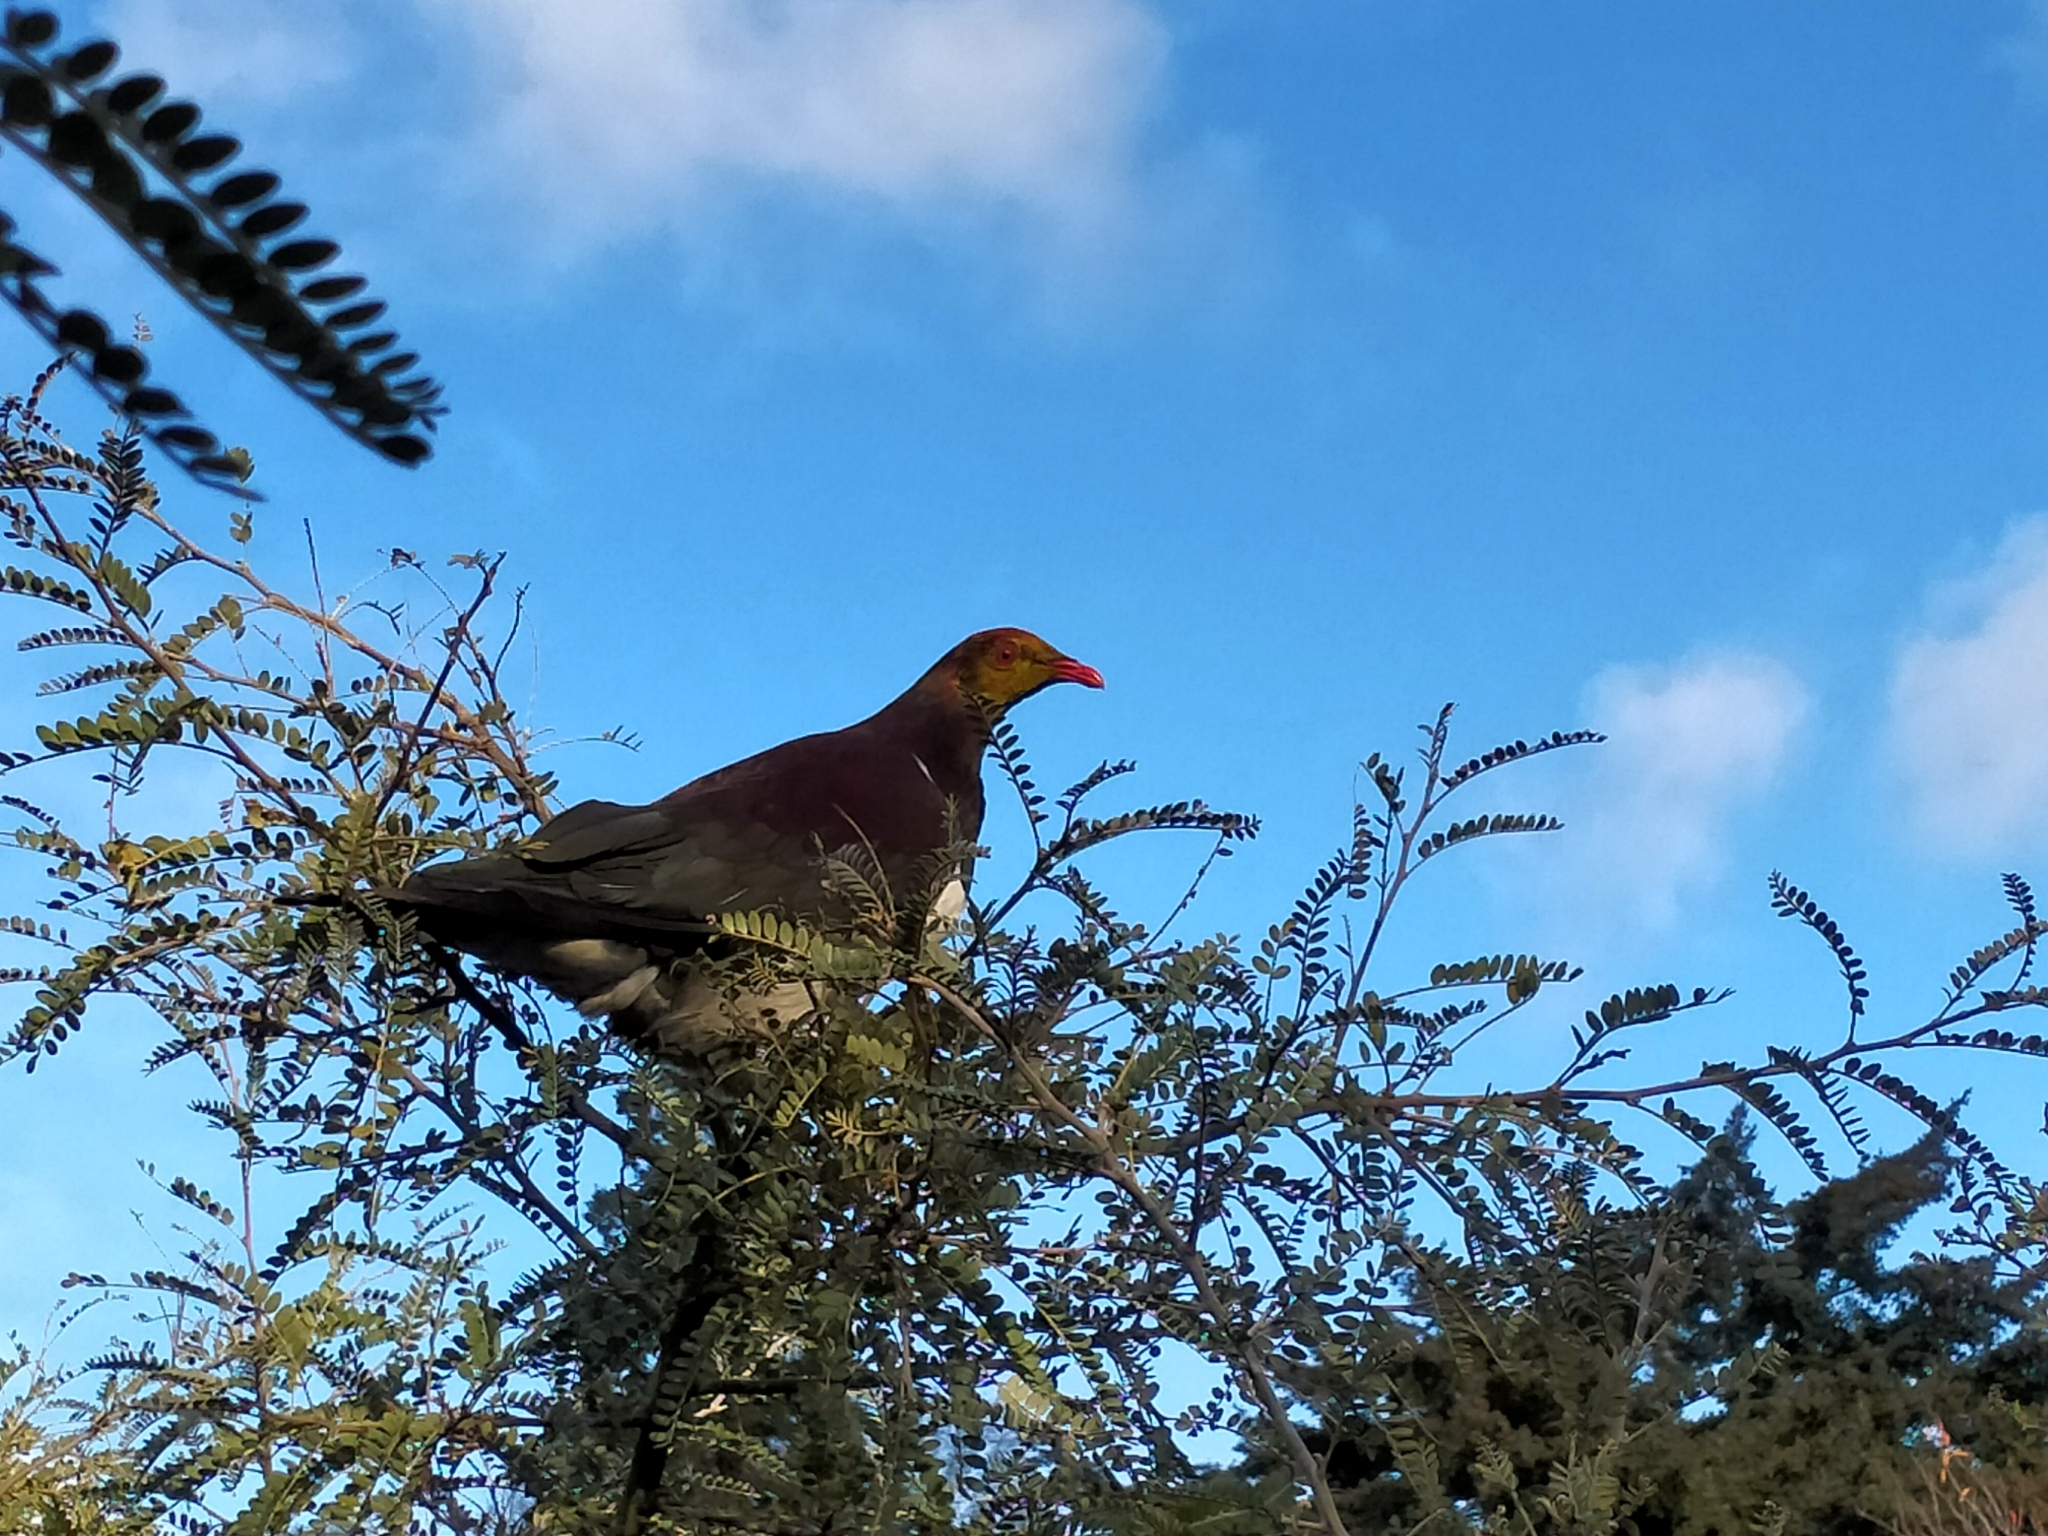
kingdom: Animalia
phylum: Chordata
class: Aves
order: Columbiformes
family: Columbidae
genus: Hemiphaga
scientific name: Hemiphaga novaeseelandiae
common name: New zealand pigeon
